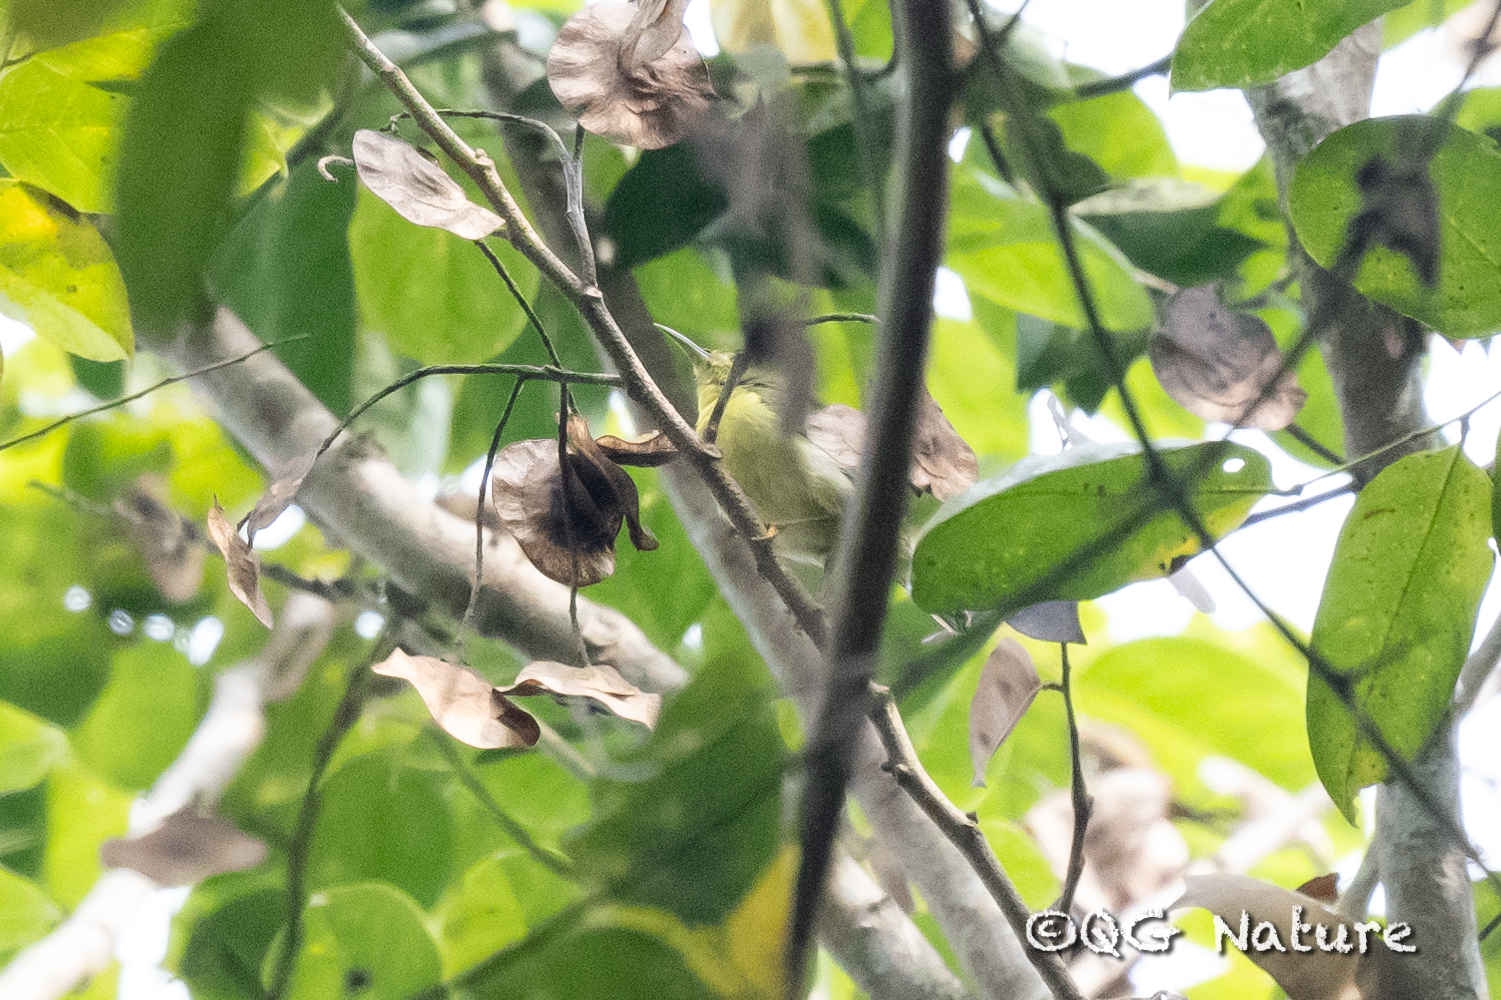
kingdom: Animalia
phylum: Chordata
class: Aves
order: Passeriformes
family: Nectariniidae
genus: Anthreptes
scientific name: Anthreptes malacensis
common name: Brown-throated sunbird
